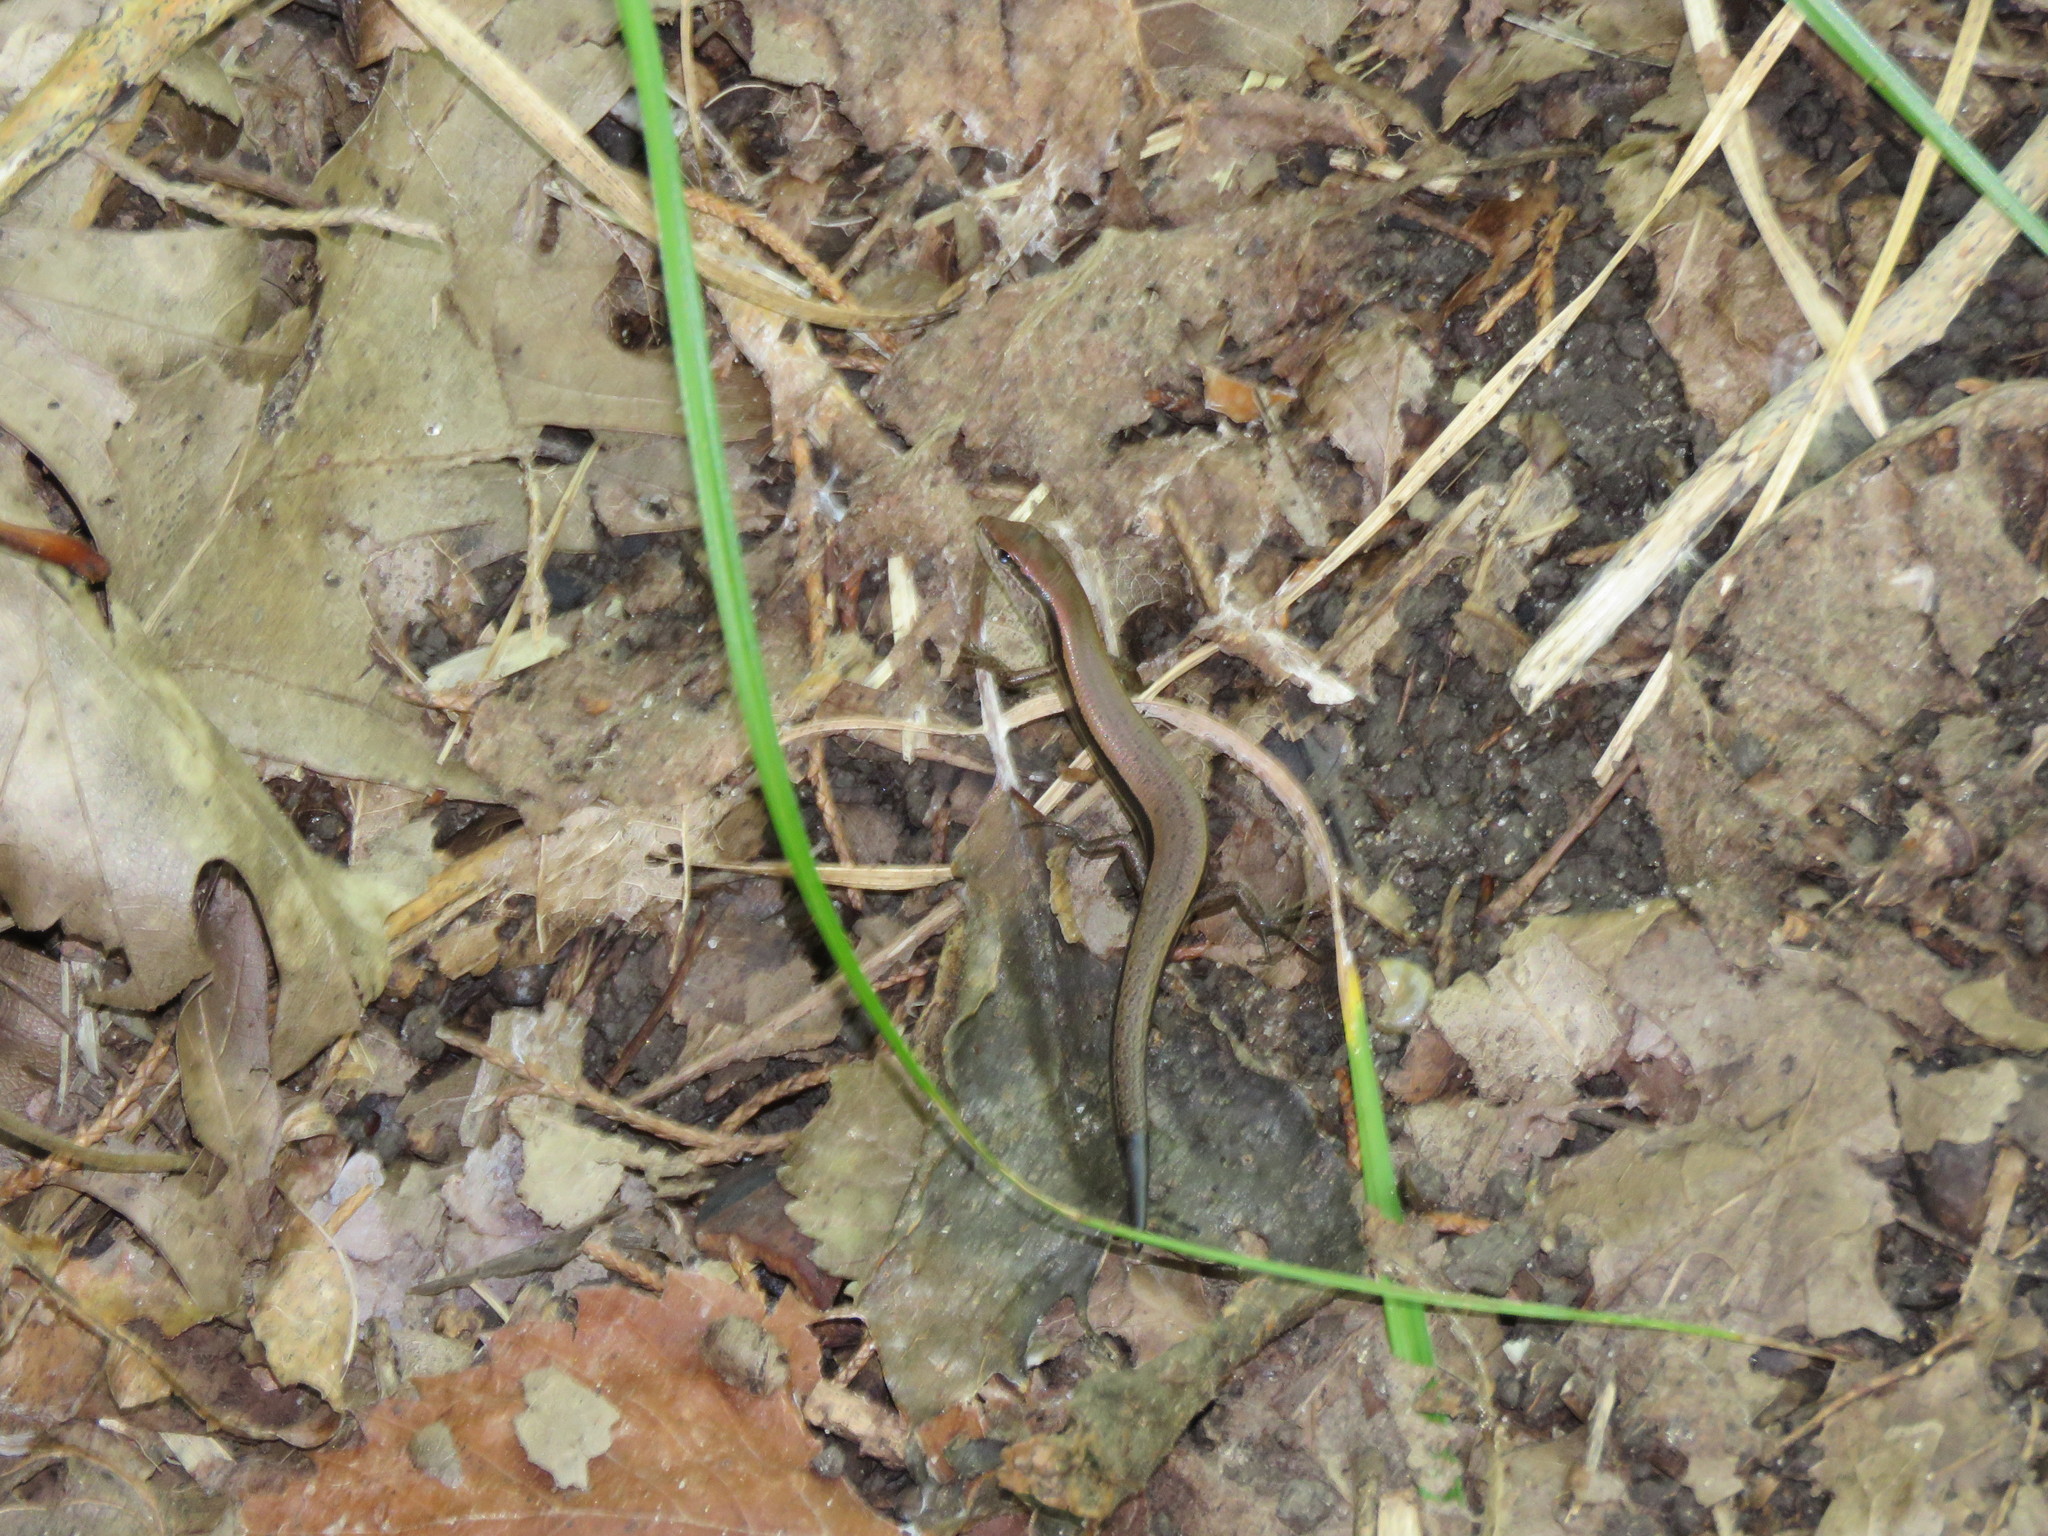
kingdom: Animalia
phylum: Chordata
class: Squamata
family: Scincidae
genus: Scincella
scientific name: Scincella lateralis
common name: Ground skink
